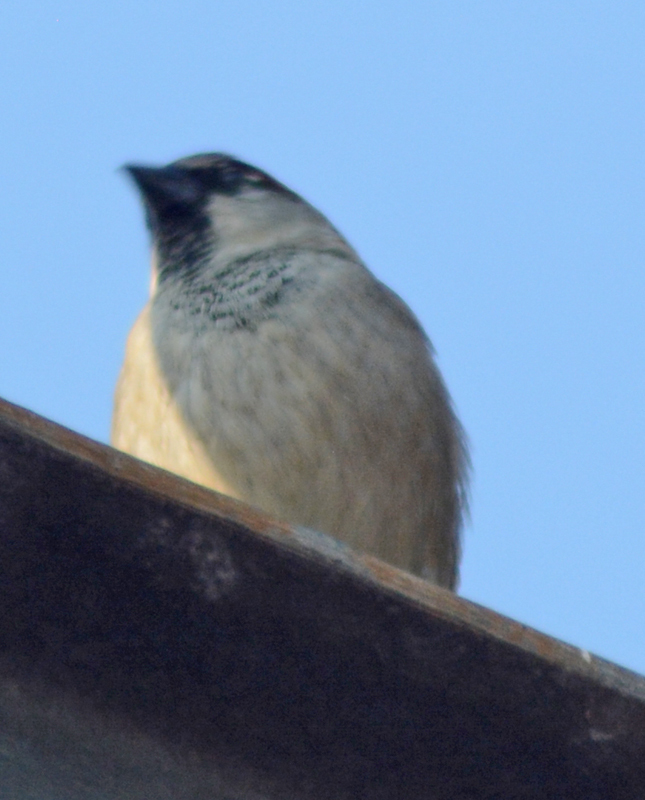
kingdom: Animalia
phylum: Chordata
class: Aves
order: Passeriformes
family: Passeridae
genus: Passer
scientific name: Passer domesticus
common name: House sparrow
